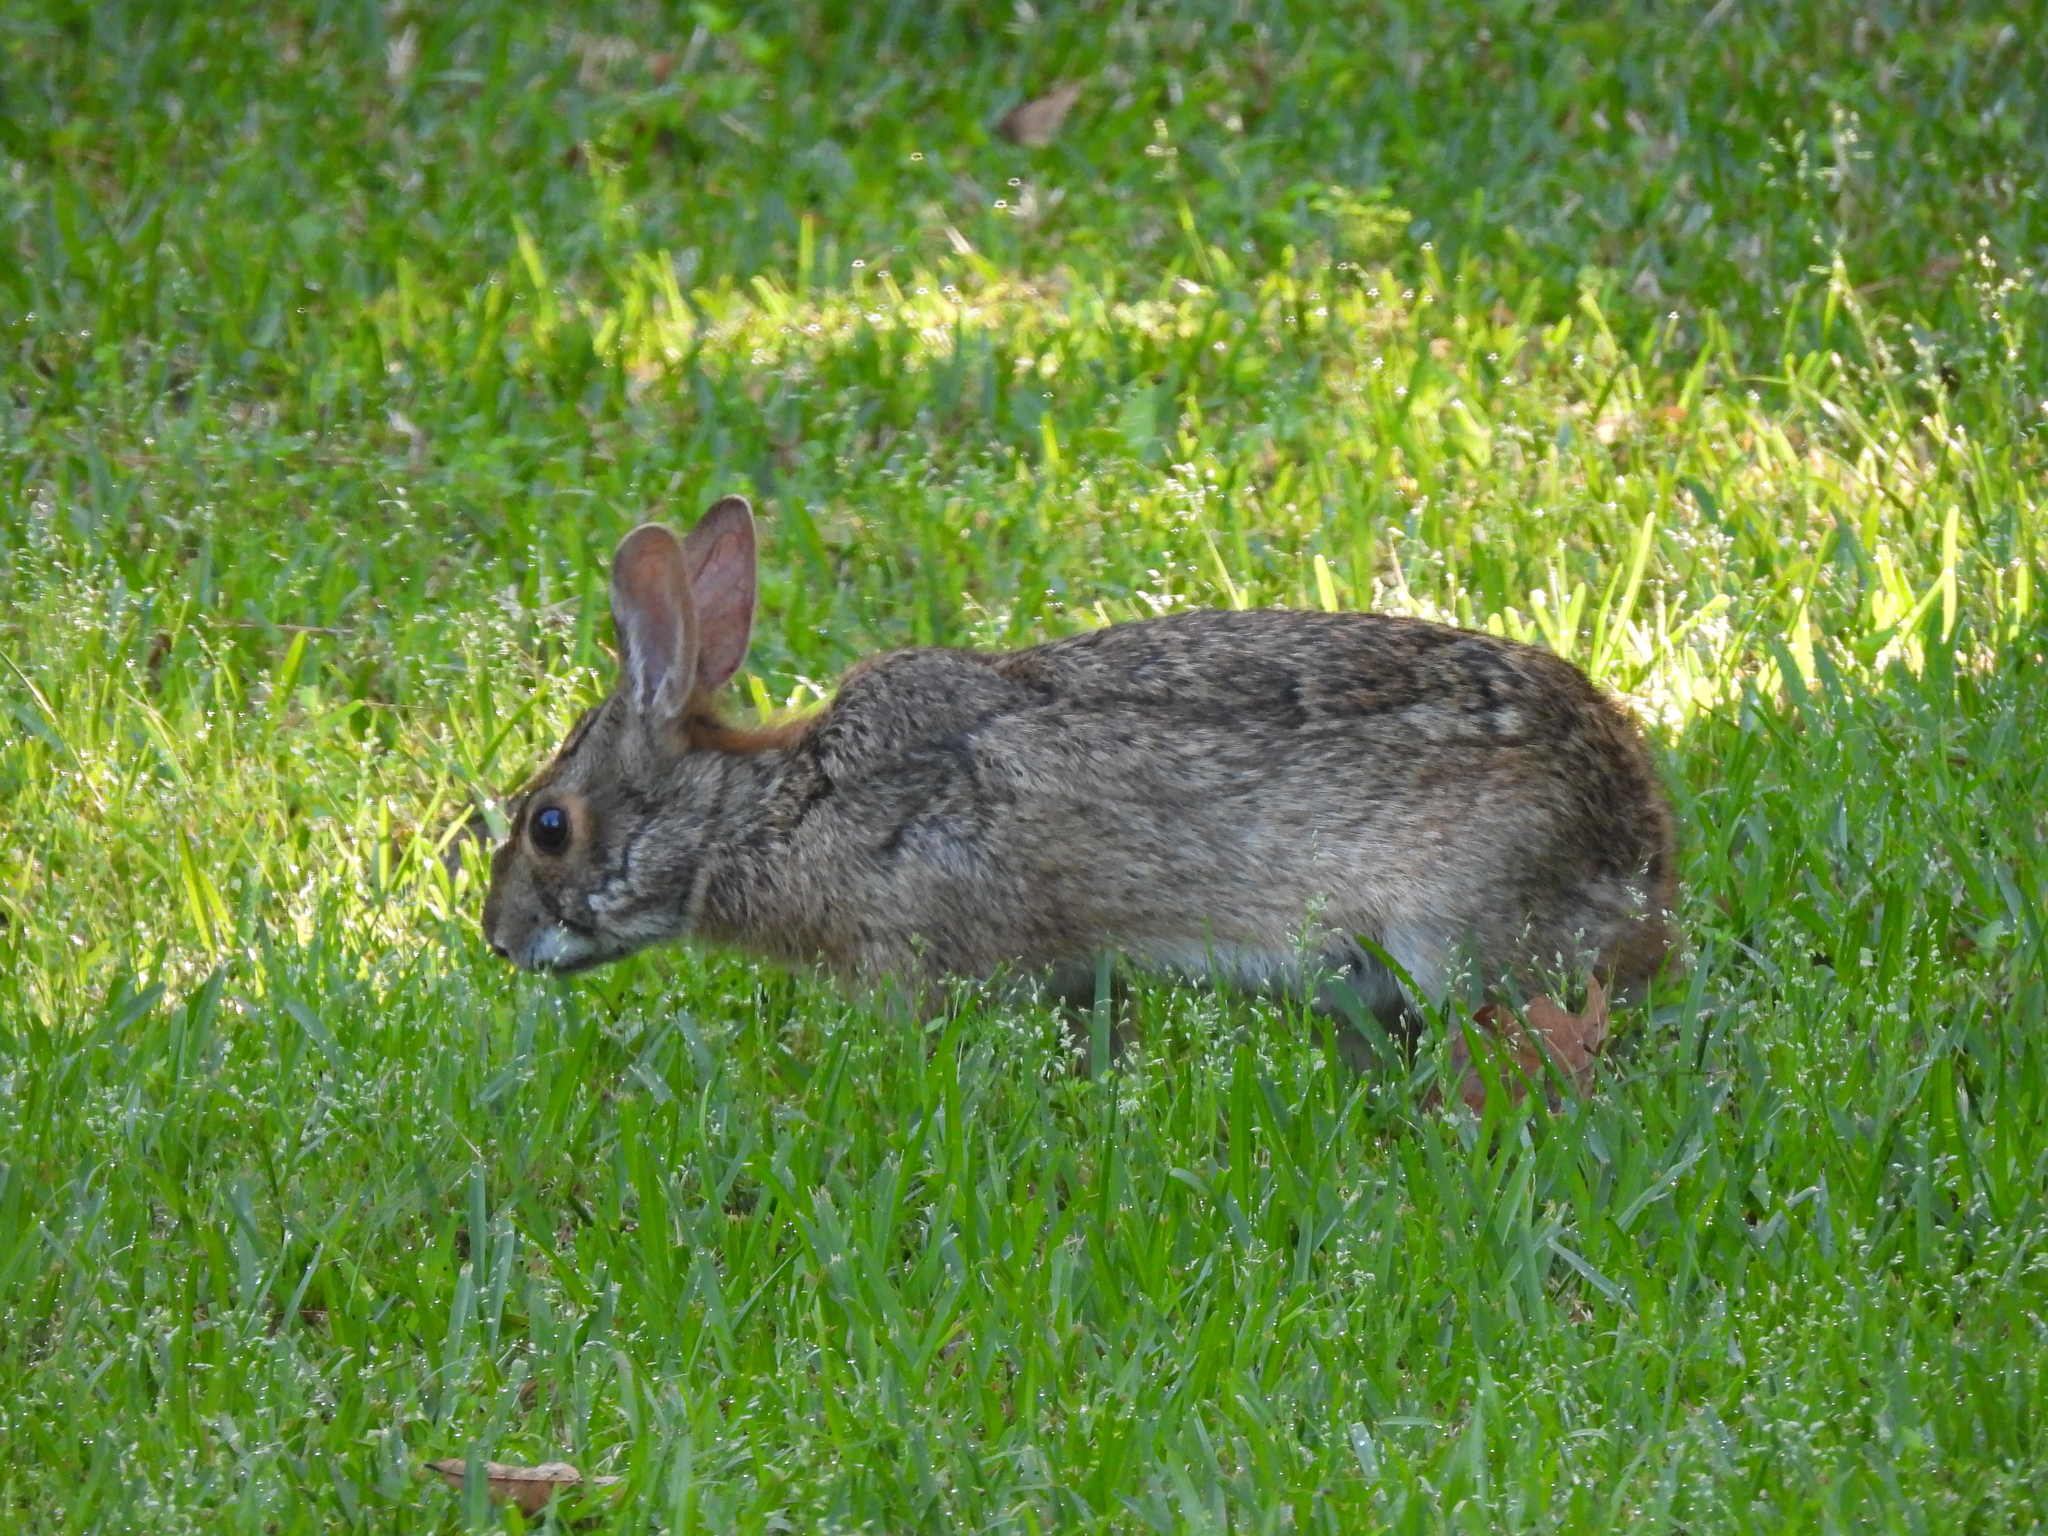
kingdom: Animalia
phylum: Chordata
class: Mammalia
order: Lagomorpha
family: Leporidae
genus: Sylvilagus
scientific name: Sylvilagus aquaticus
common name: Swamp rabbit
